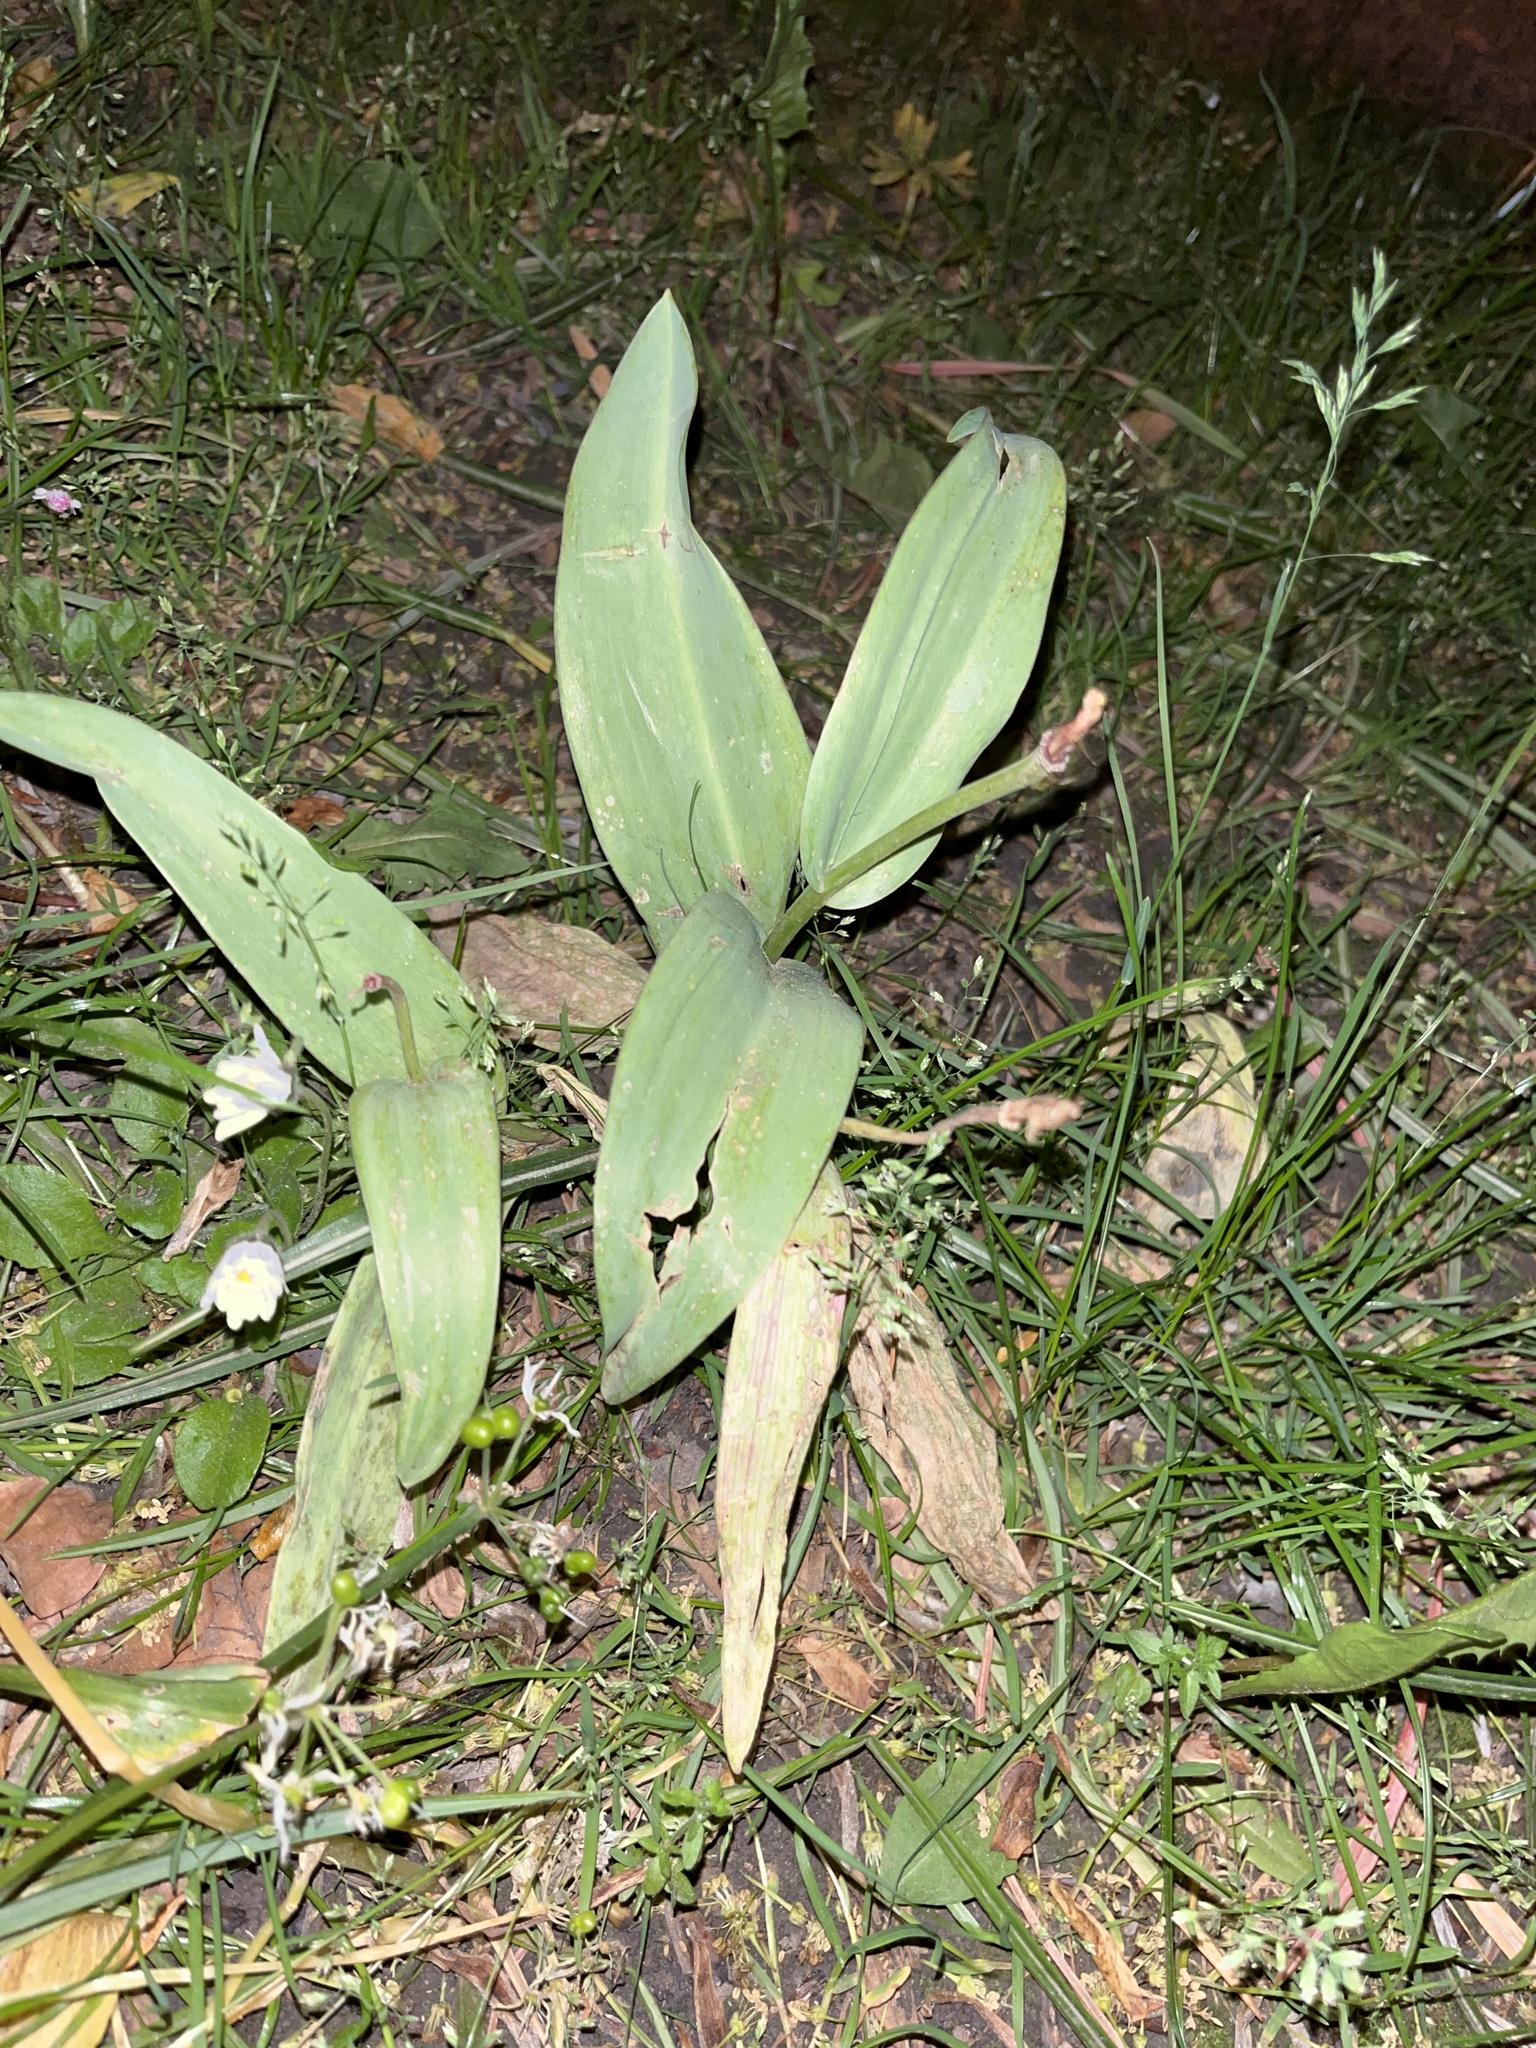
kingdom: Plantae
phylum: Tracheophyta
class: Liliopsida
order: Liliales
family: Liliaceae
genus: Tulipa
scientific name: Tulipa gesneriana
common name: Garden tulip
